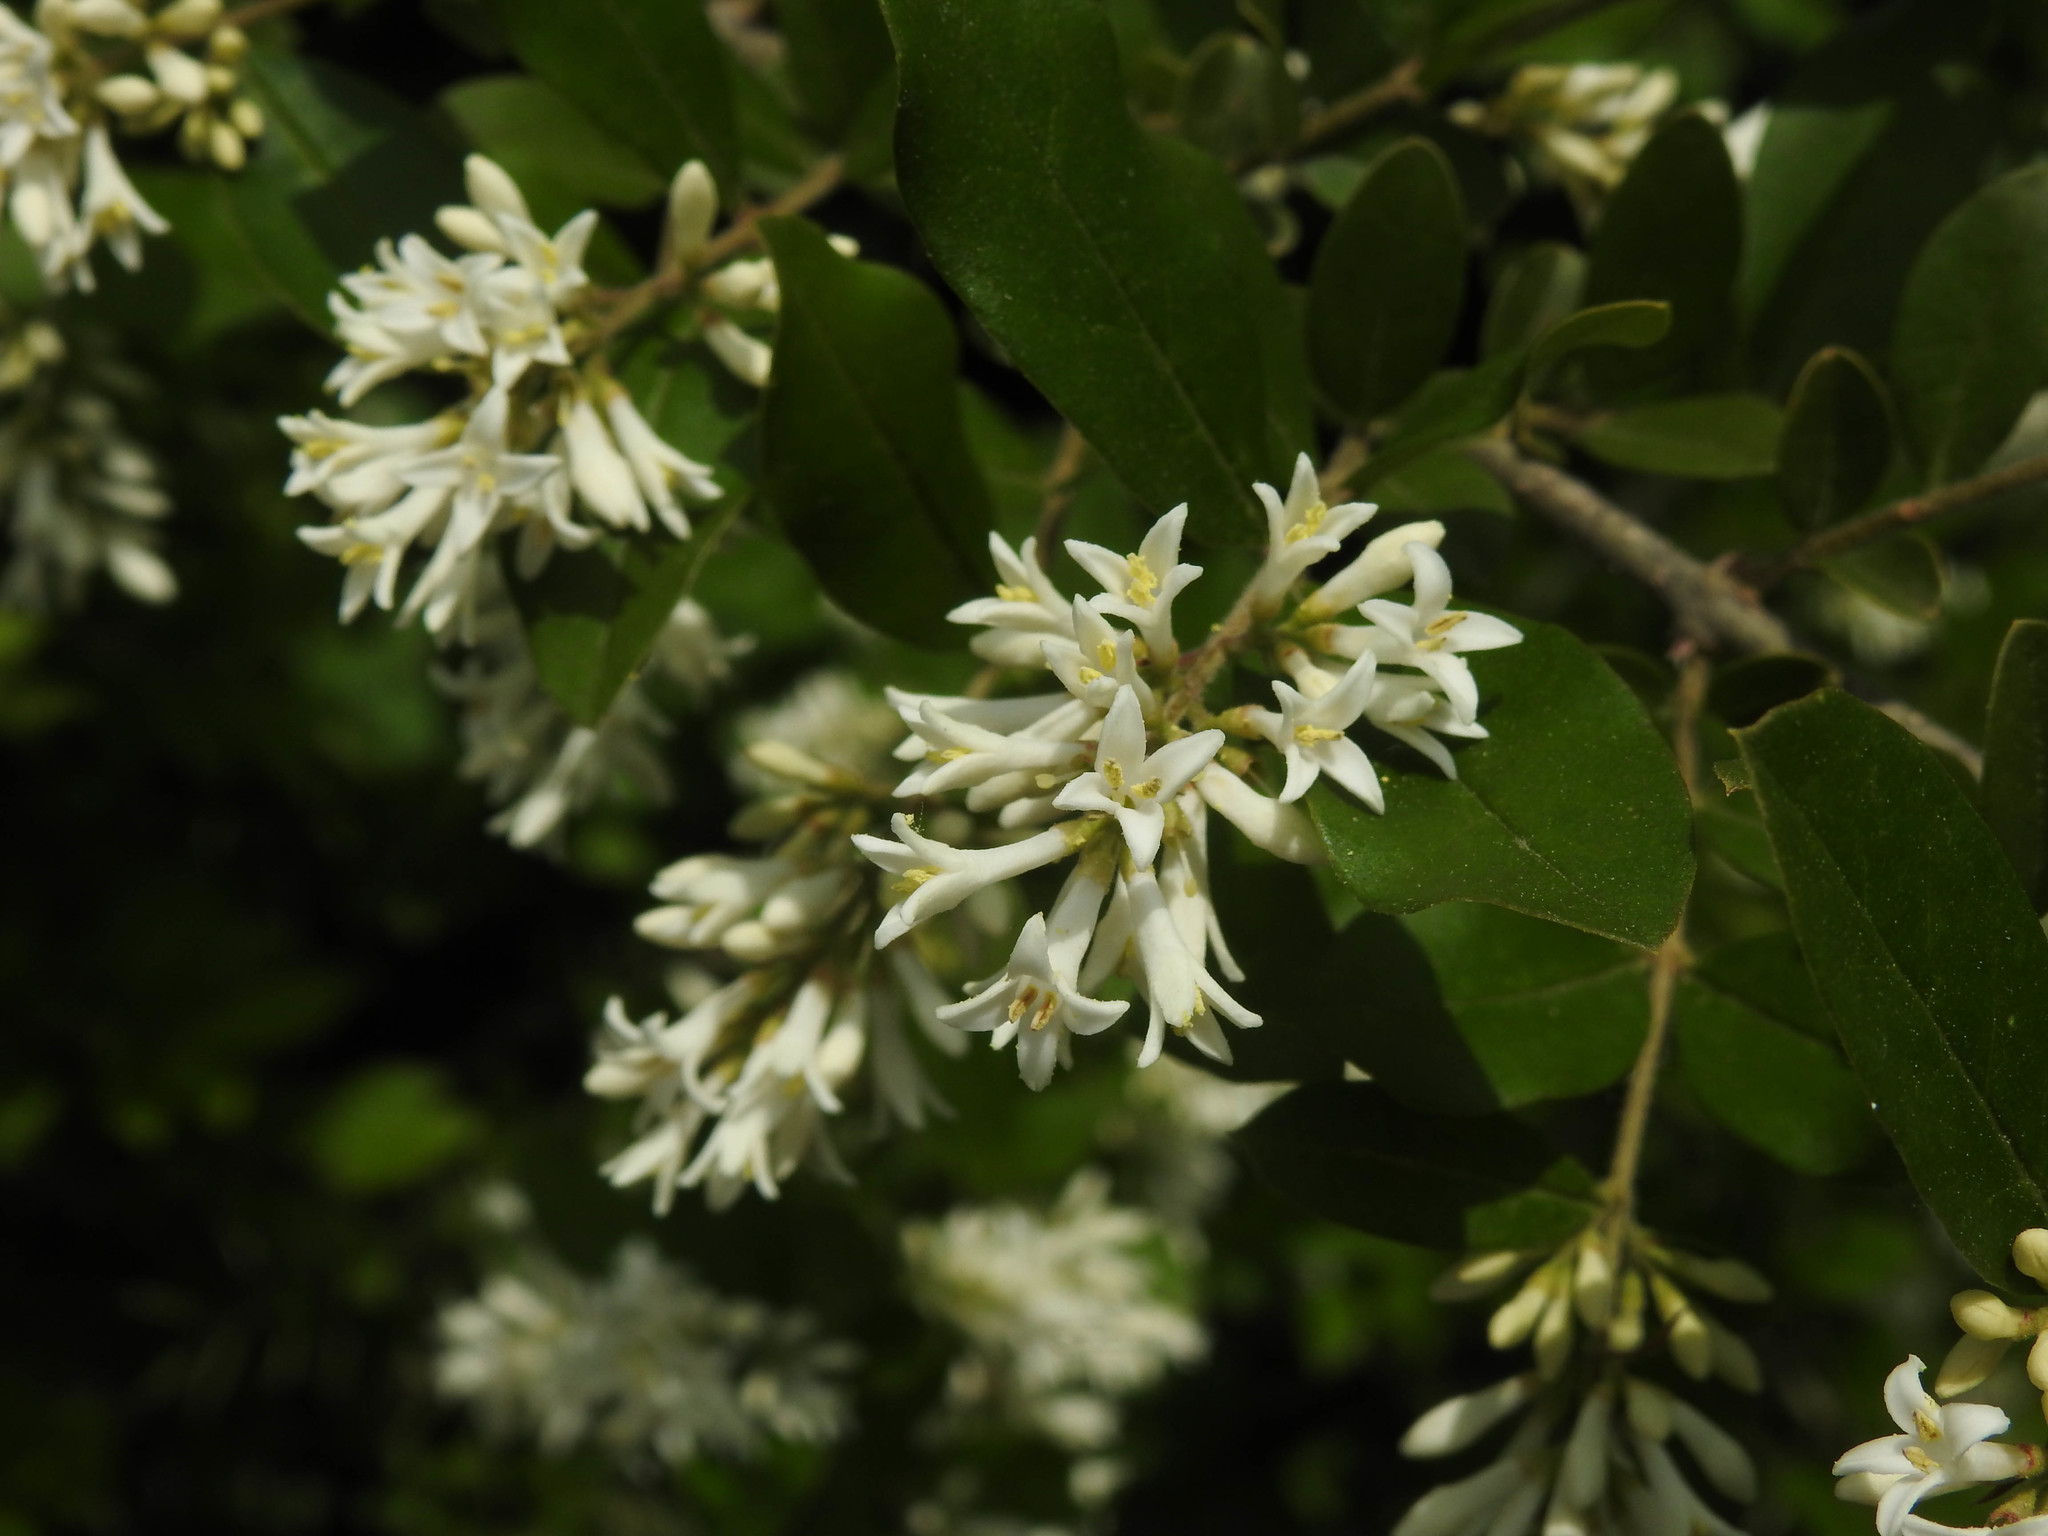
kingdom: Plantae
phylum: Tracheophyta
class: Magnoliopsida
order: Lamiales
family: Oleaceae
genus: Ligustrum
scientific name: Ligustrum obtusifolium
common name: Border privet
